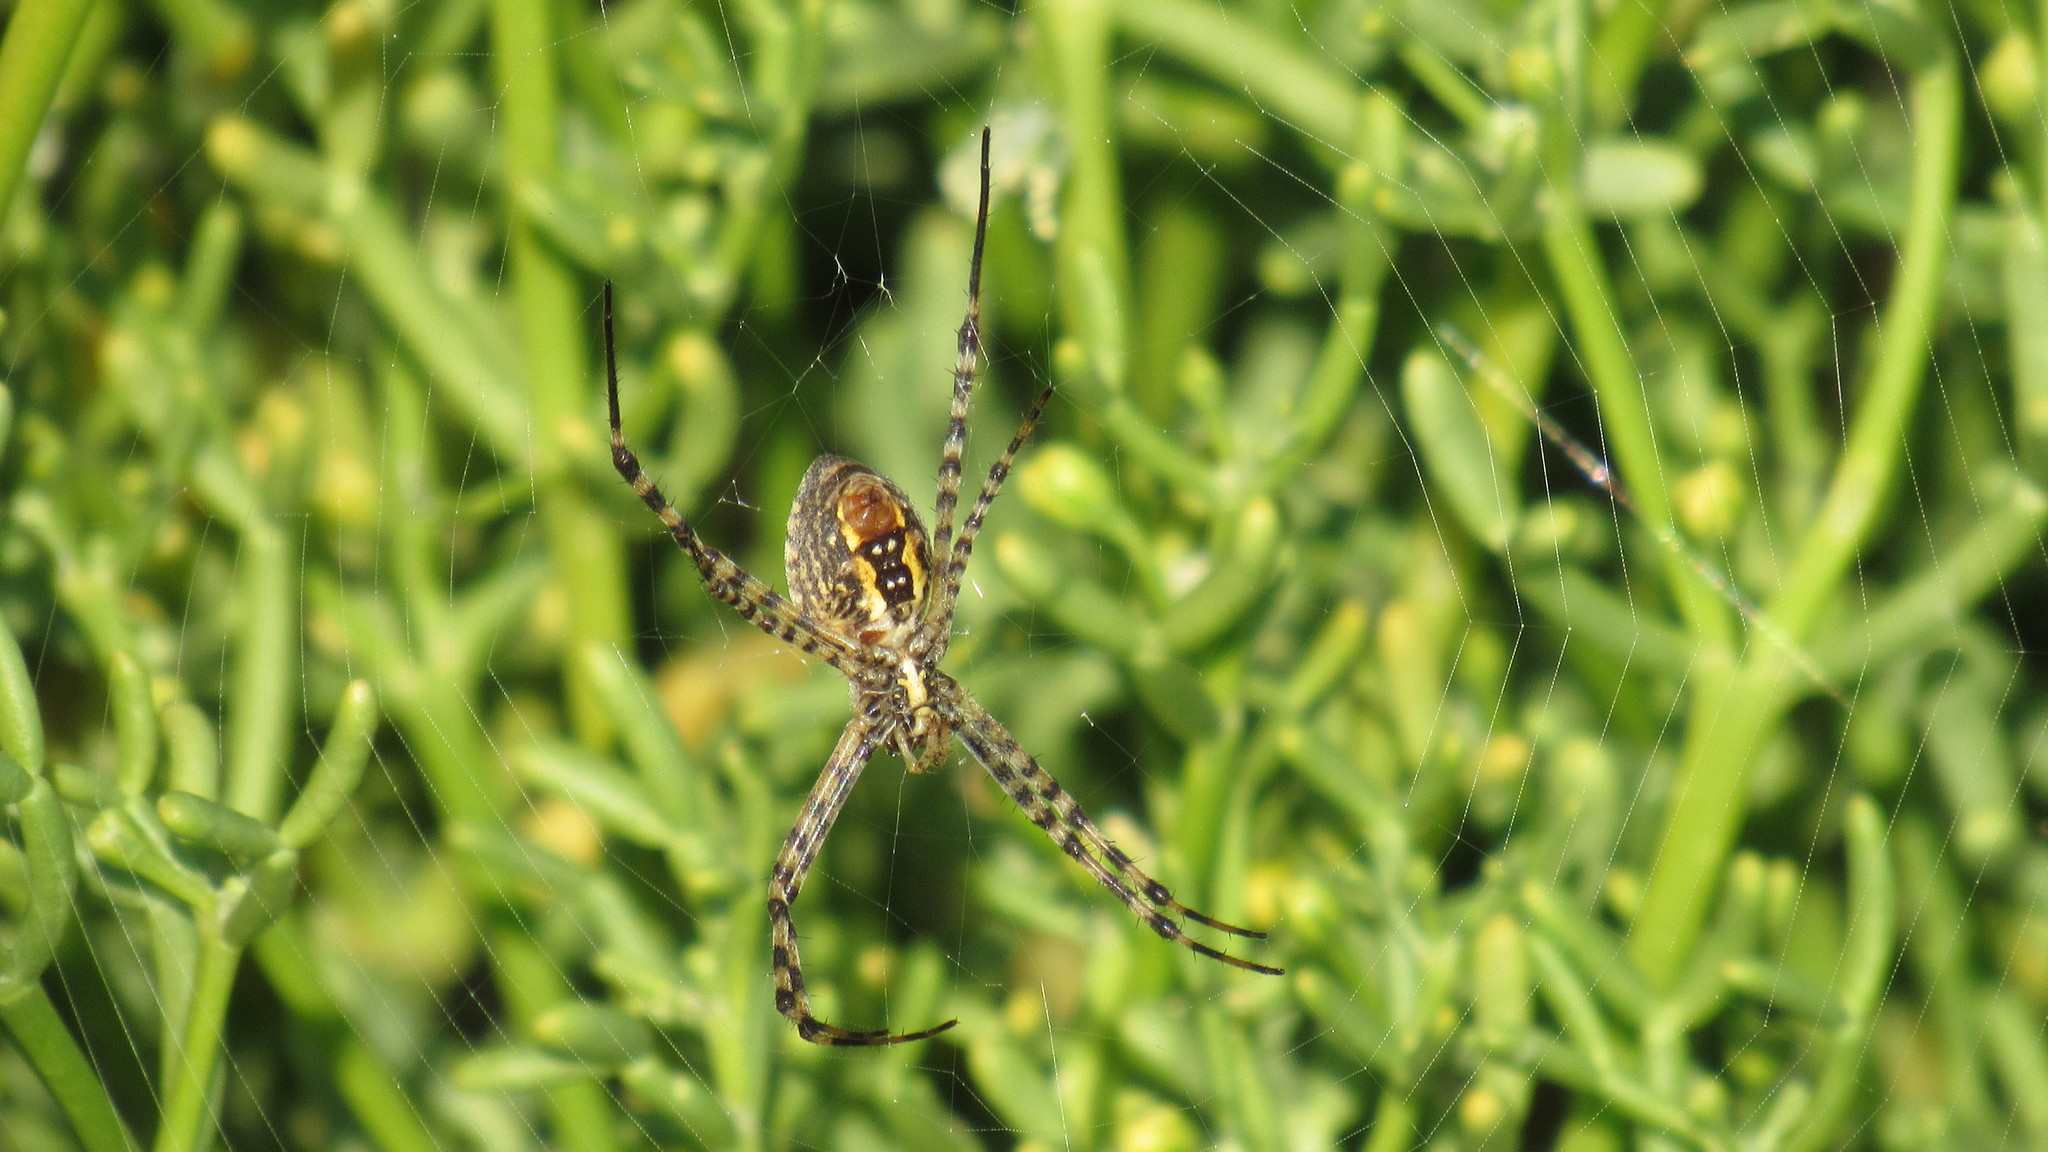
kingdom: Animalia
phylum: Arthropoda
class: Arachnida
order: Araneae
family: Araneidae
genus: Argiope
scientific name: Argiope trifasciata
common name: Banded garden spider
